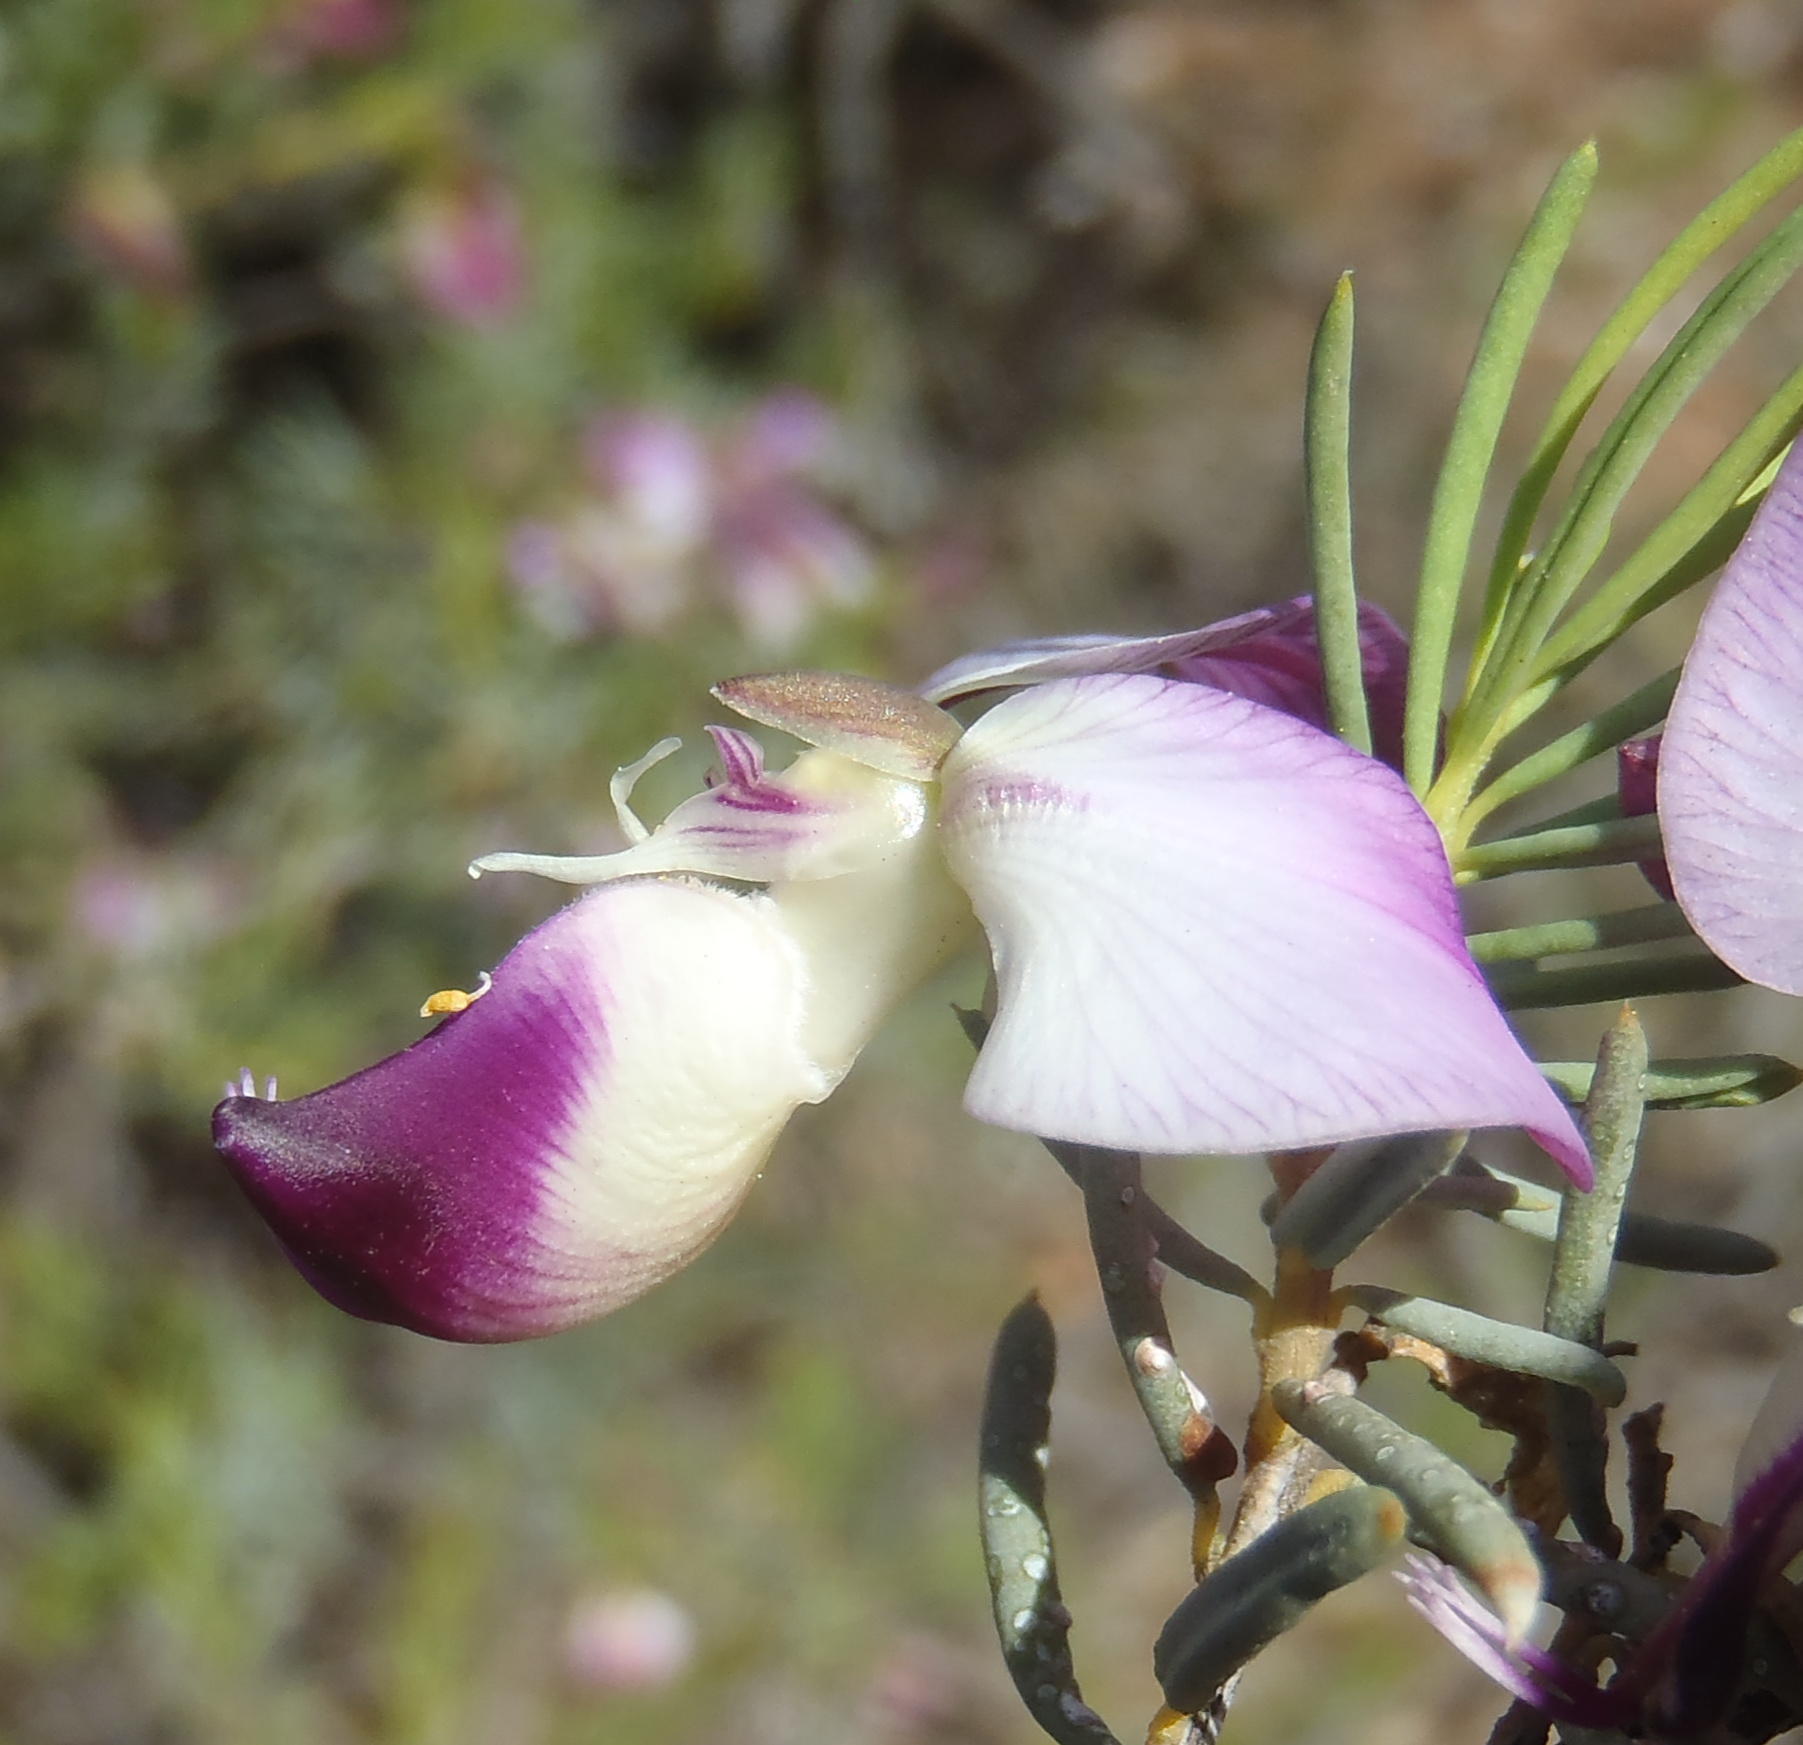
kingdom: Plantae
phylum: Tracheophyta
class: Magnoliopsida
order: Fabales
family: Polygalaceae
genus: Polygala
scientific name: Polygala myrtifolia
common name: Myrtle-leaf milkwort
